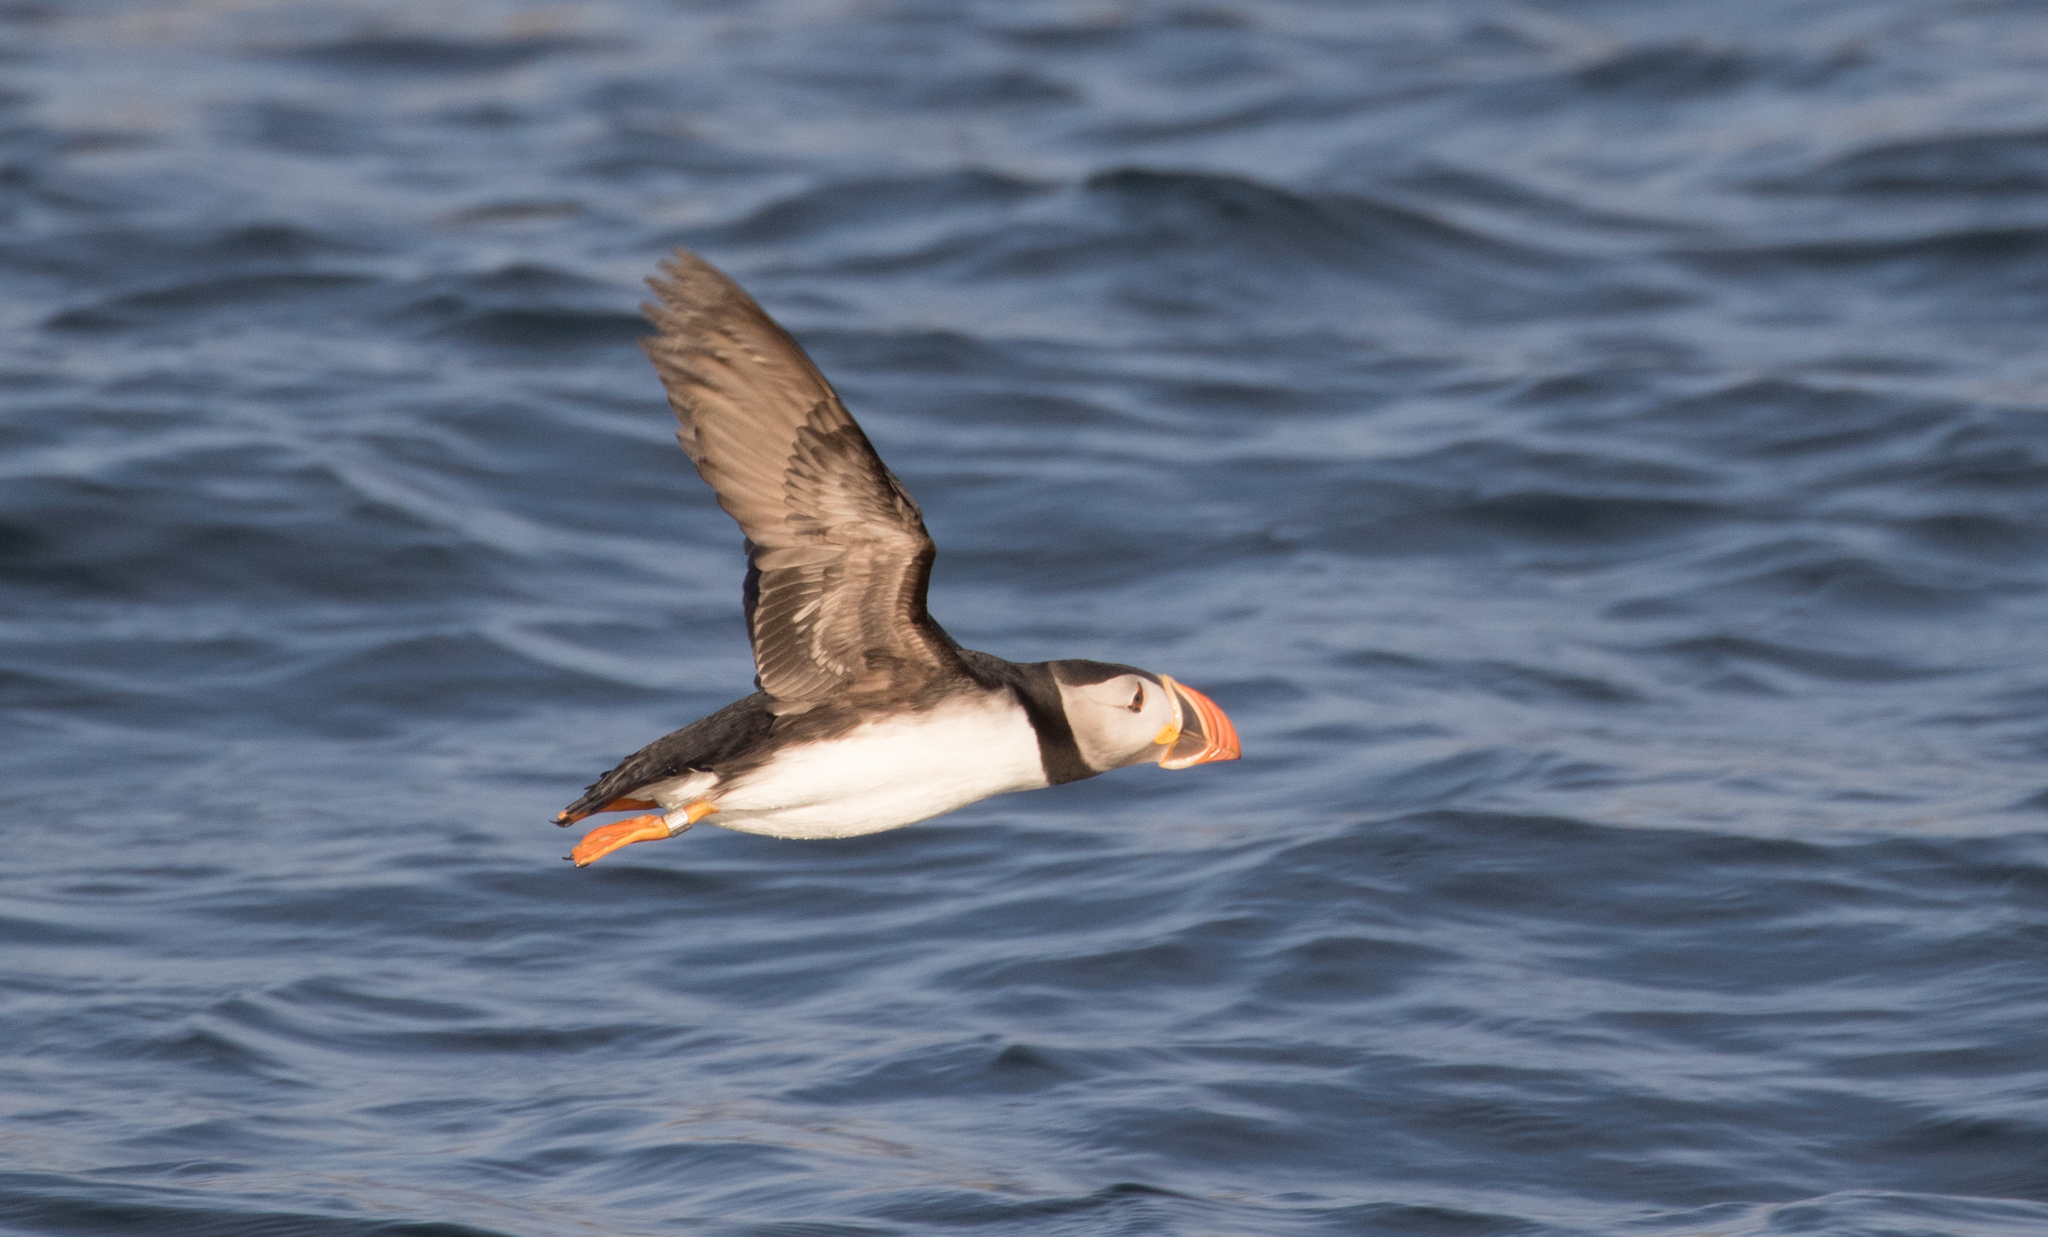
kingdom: Animalia
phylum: Chordata
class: Aves
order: Charadriiformes
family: Alcidae
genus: Fratercula
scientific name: Fratercula arctica
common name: Atlantic puffin
